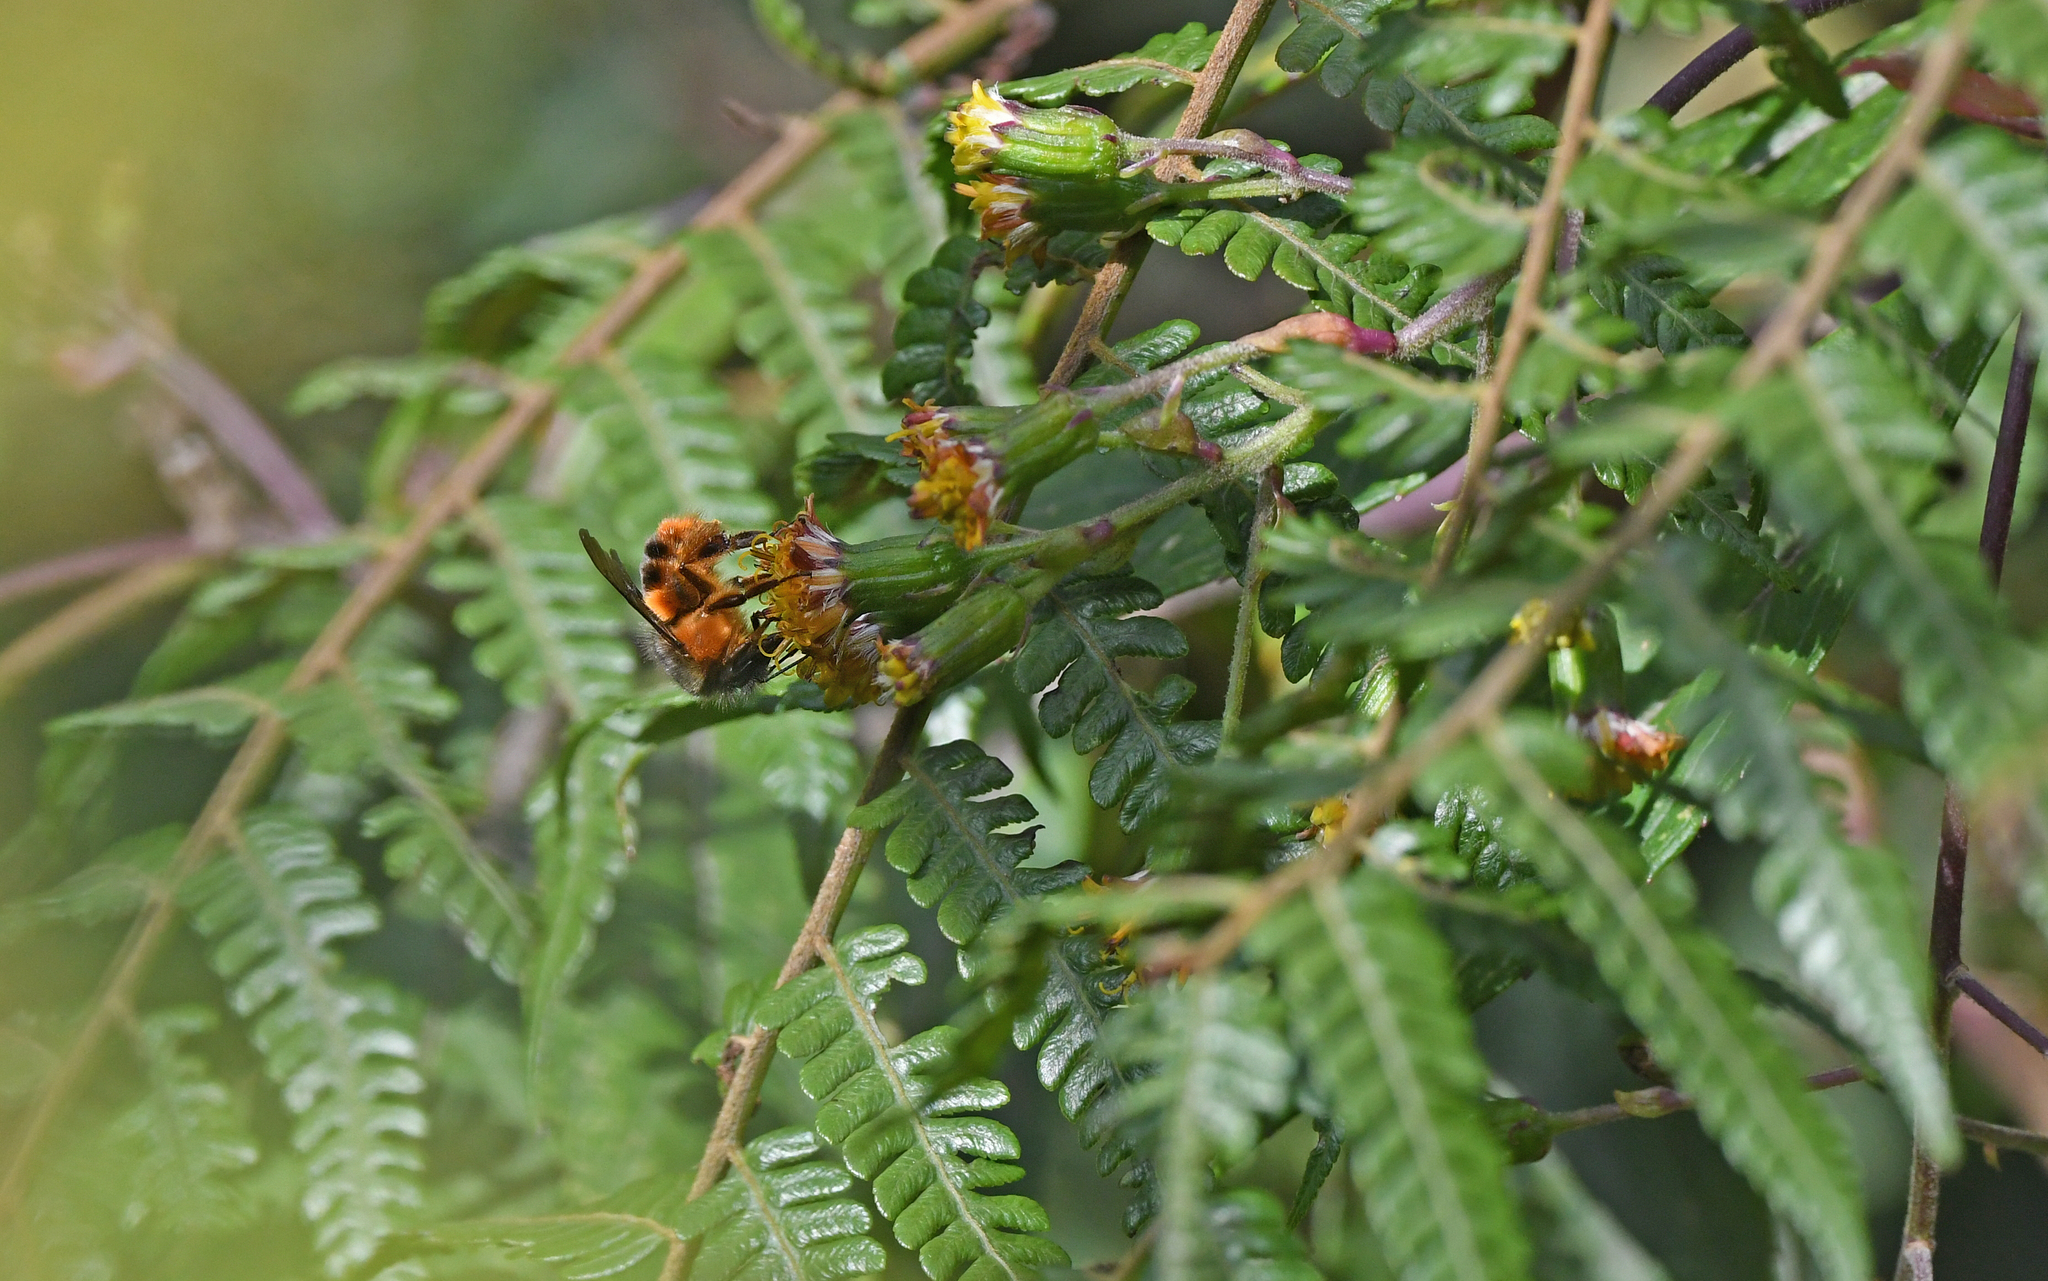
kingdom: Animalia
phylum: Arthropoda
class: Insecta
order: Hymenoptera
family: Apidae
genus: Bombus
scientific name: Bombus handlirschi
